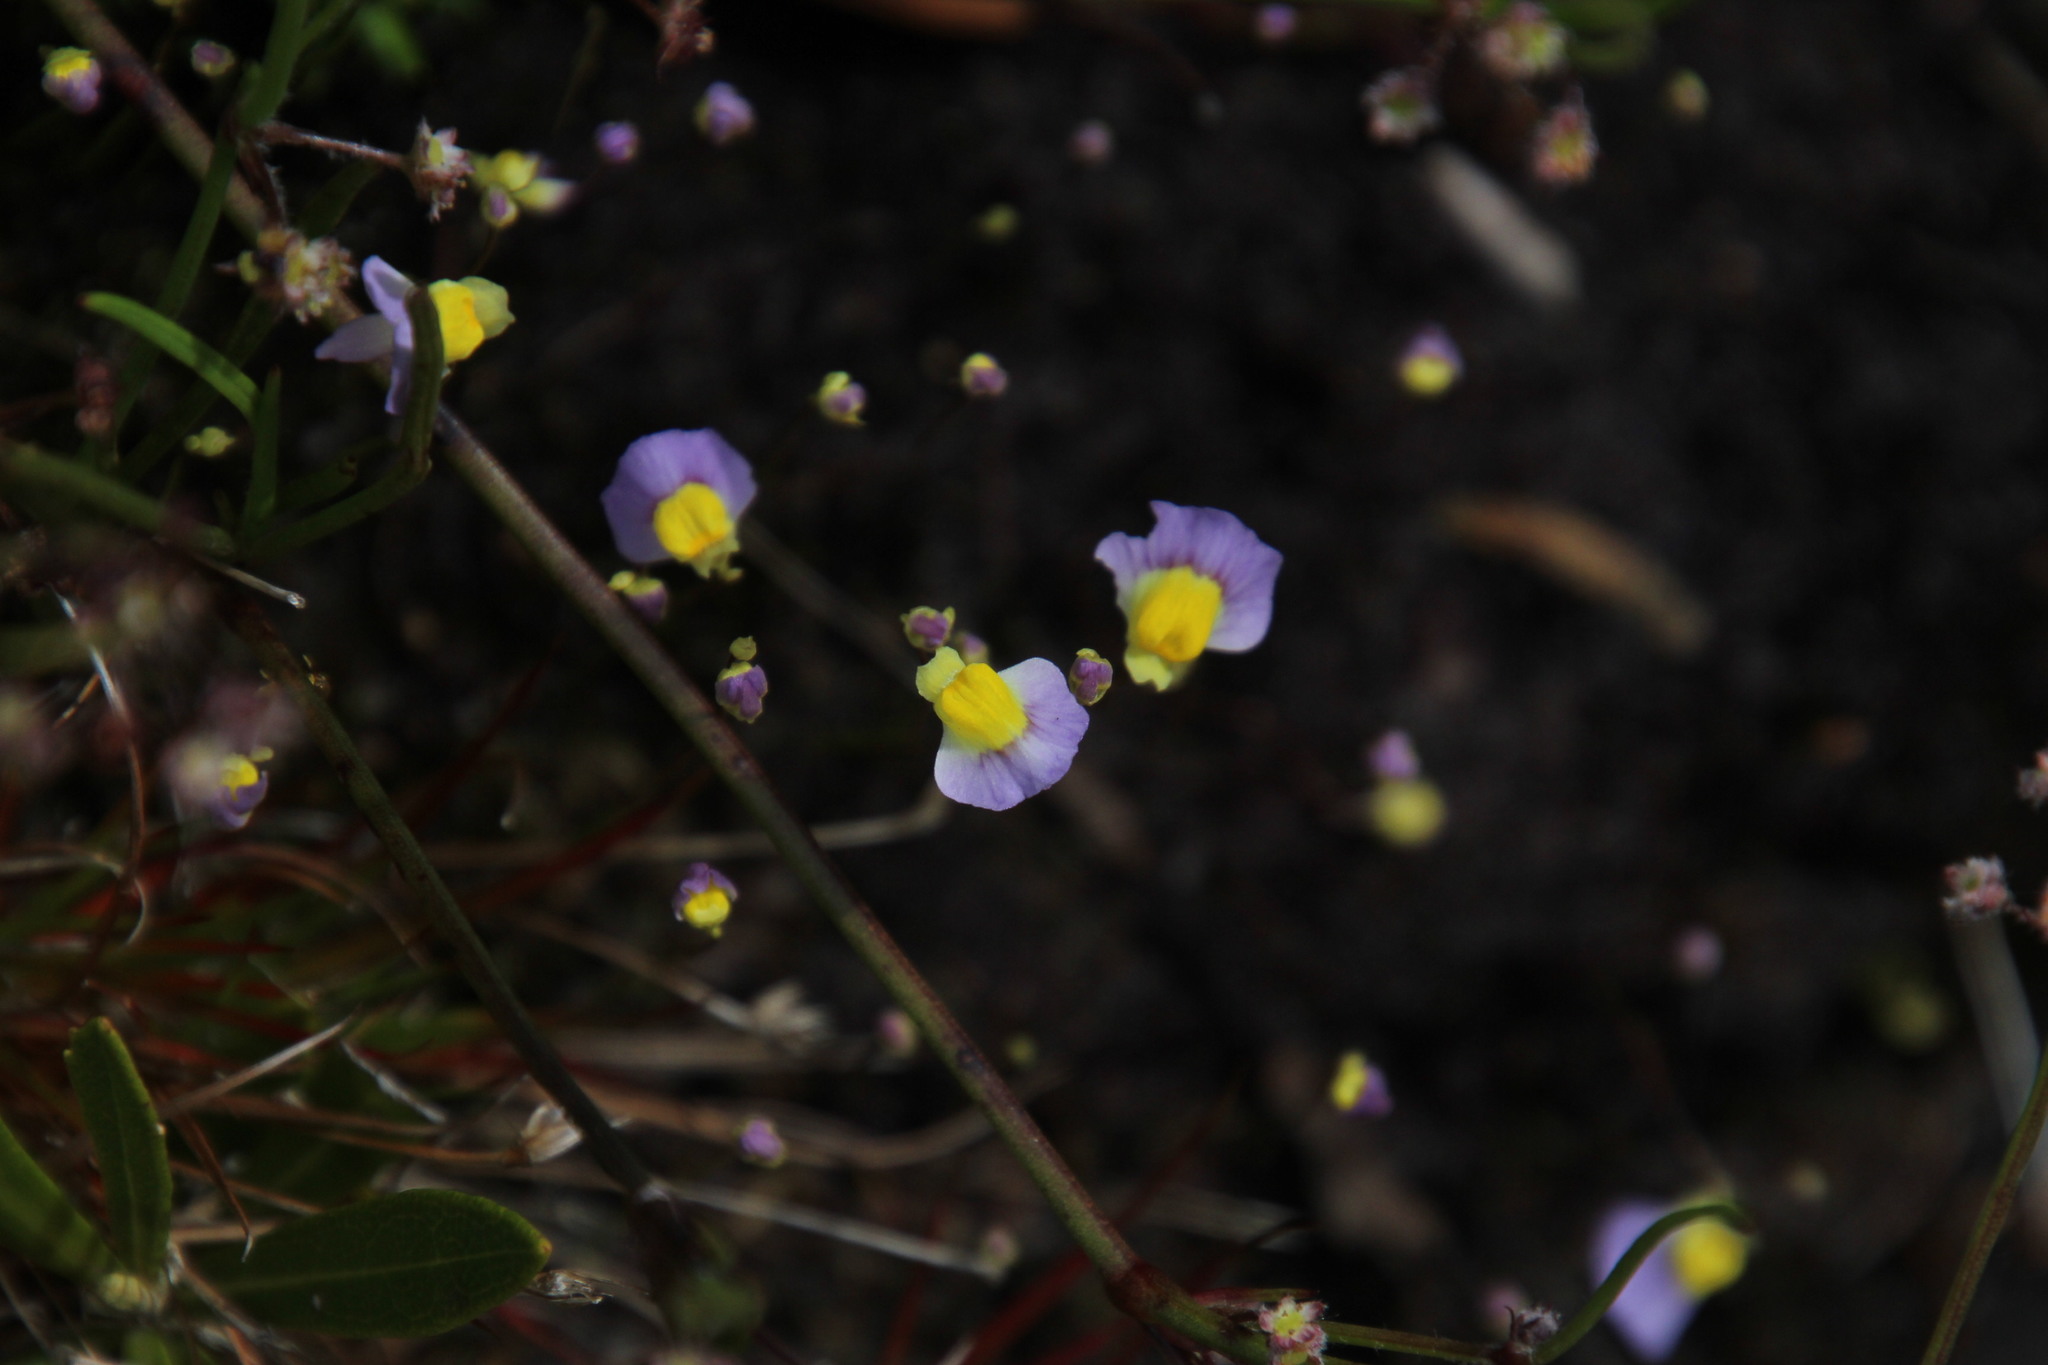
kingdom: Plantae
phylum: Tracheophyta
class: Magnoliopsida
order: Lamiales
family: Lentibulariaceae
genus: Utricularia
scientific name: Utricularia bisquamata
